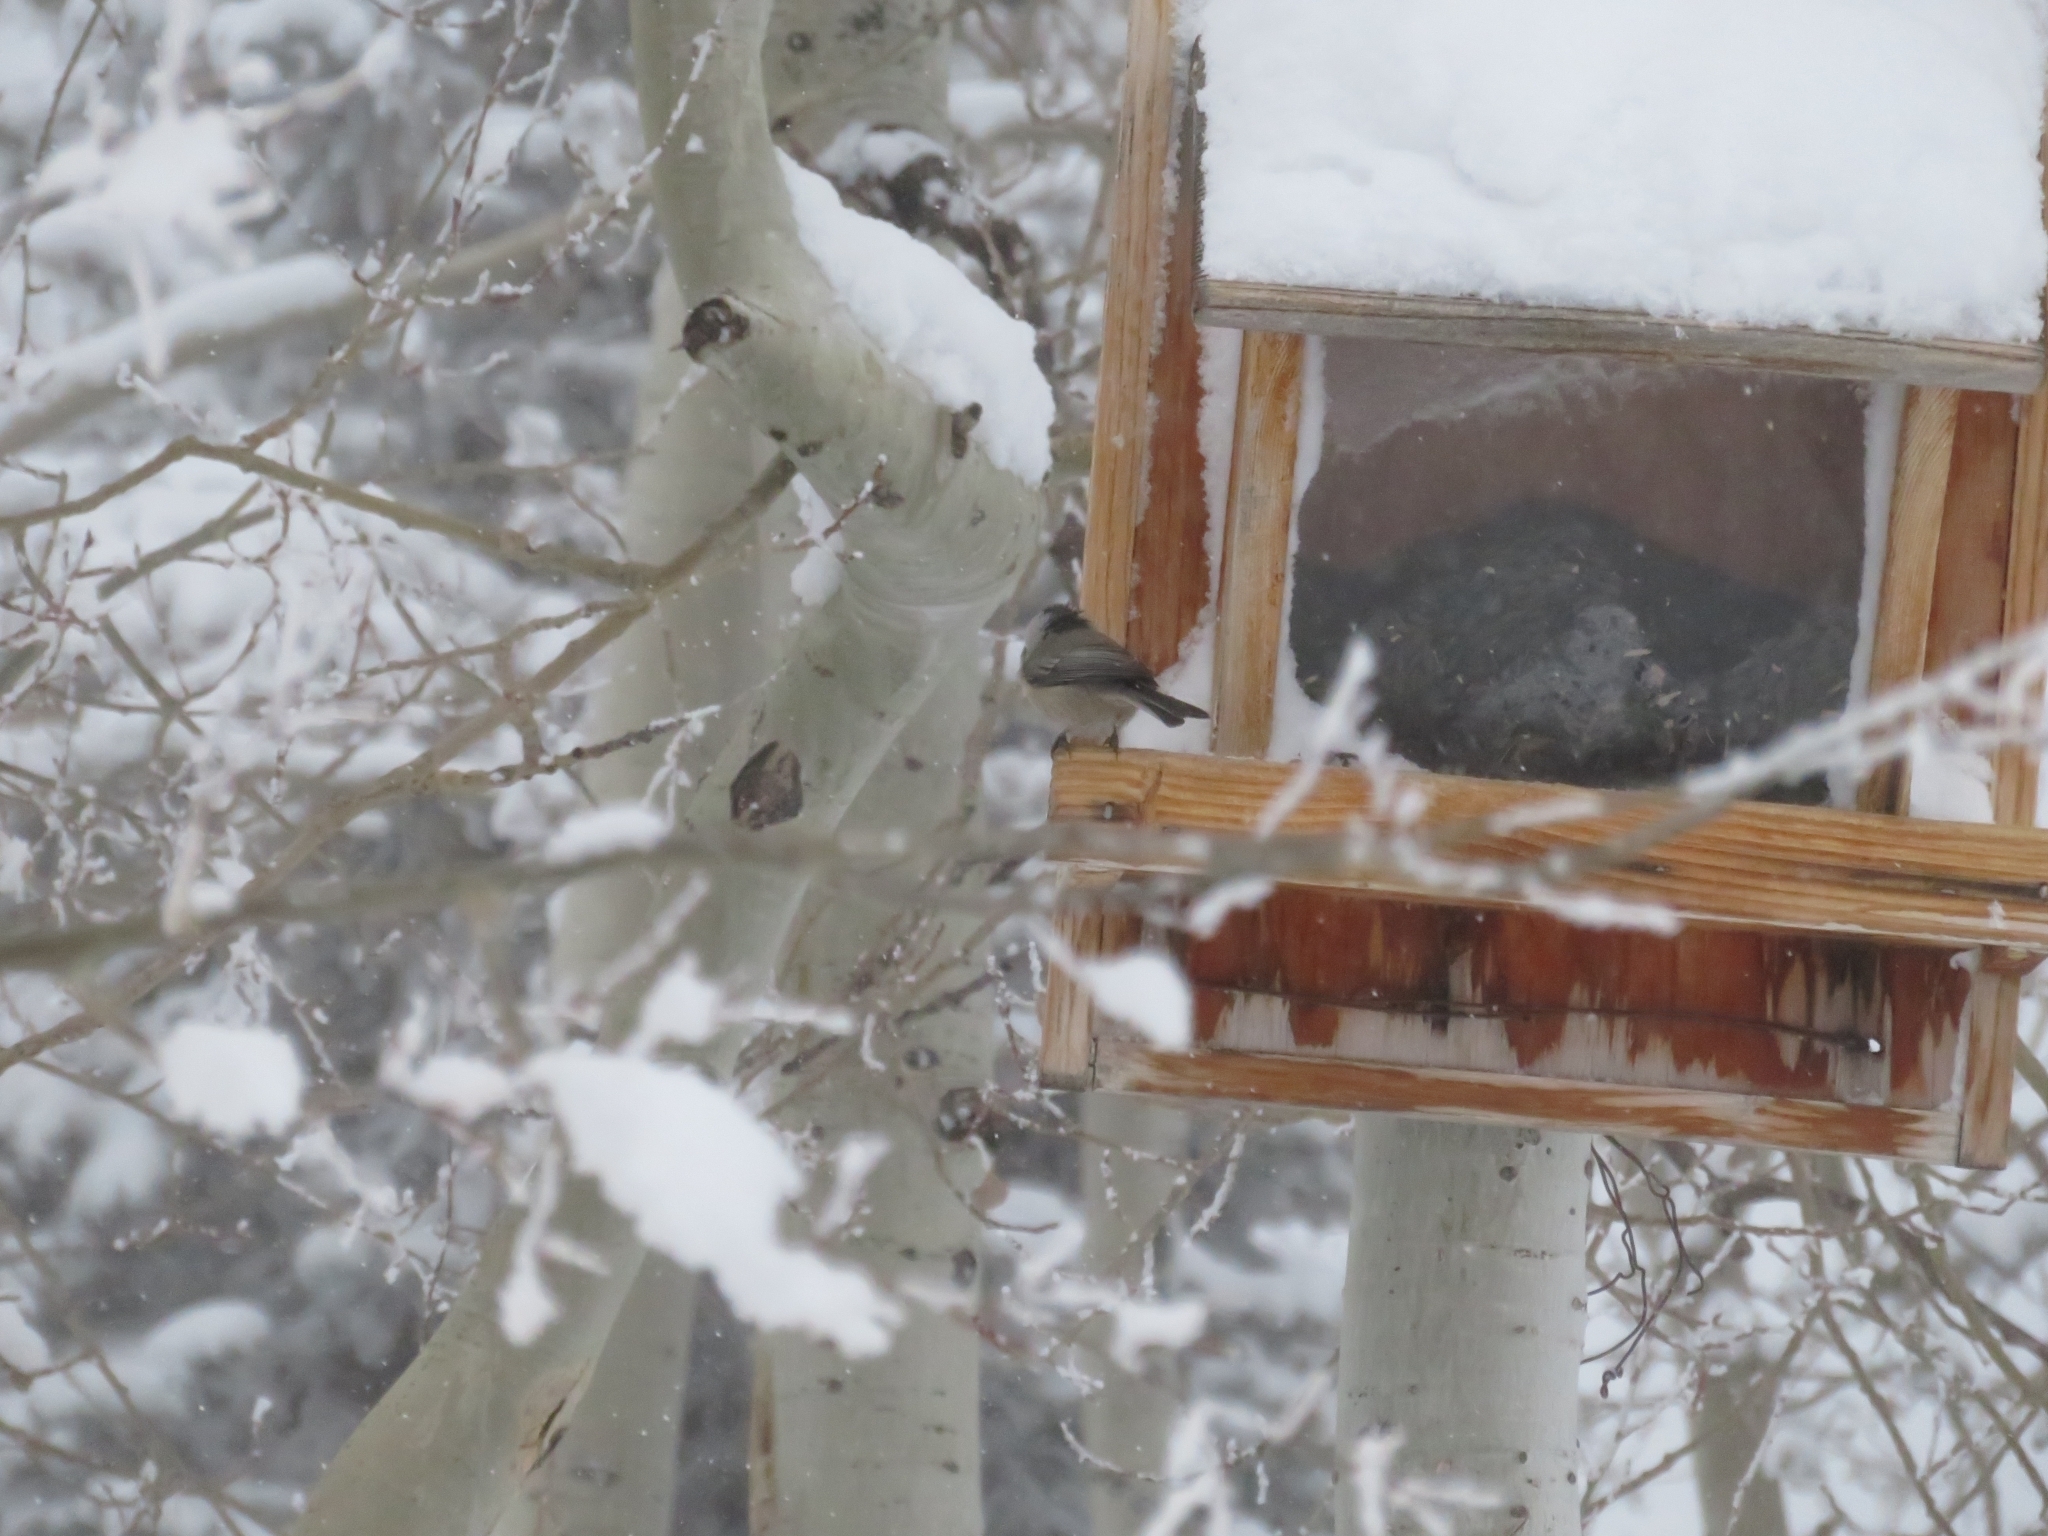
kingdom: Animalia
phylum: Chordata
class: Aves
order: Passeriformes
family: Paridae
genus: Poecile
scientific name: Poecile gambeli
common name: Mountain chickadee
